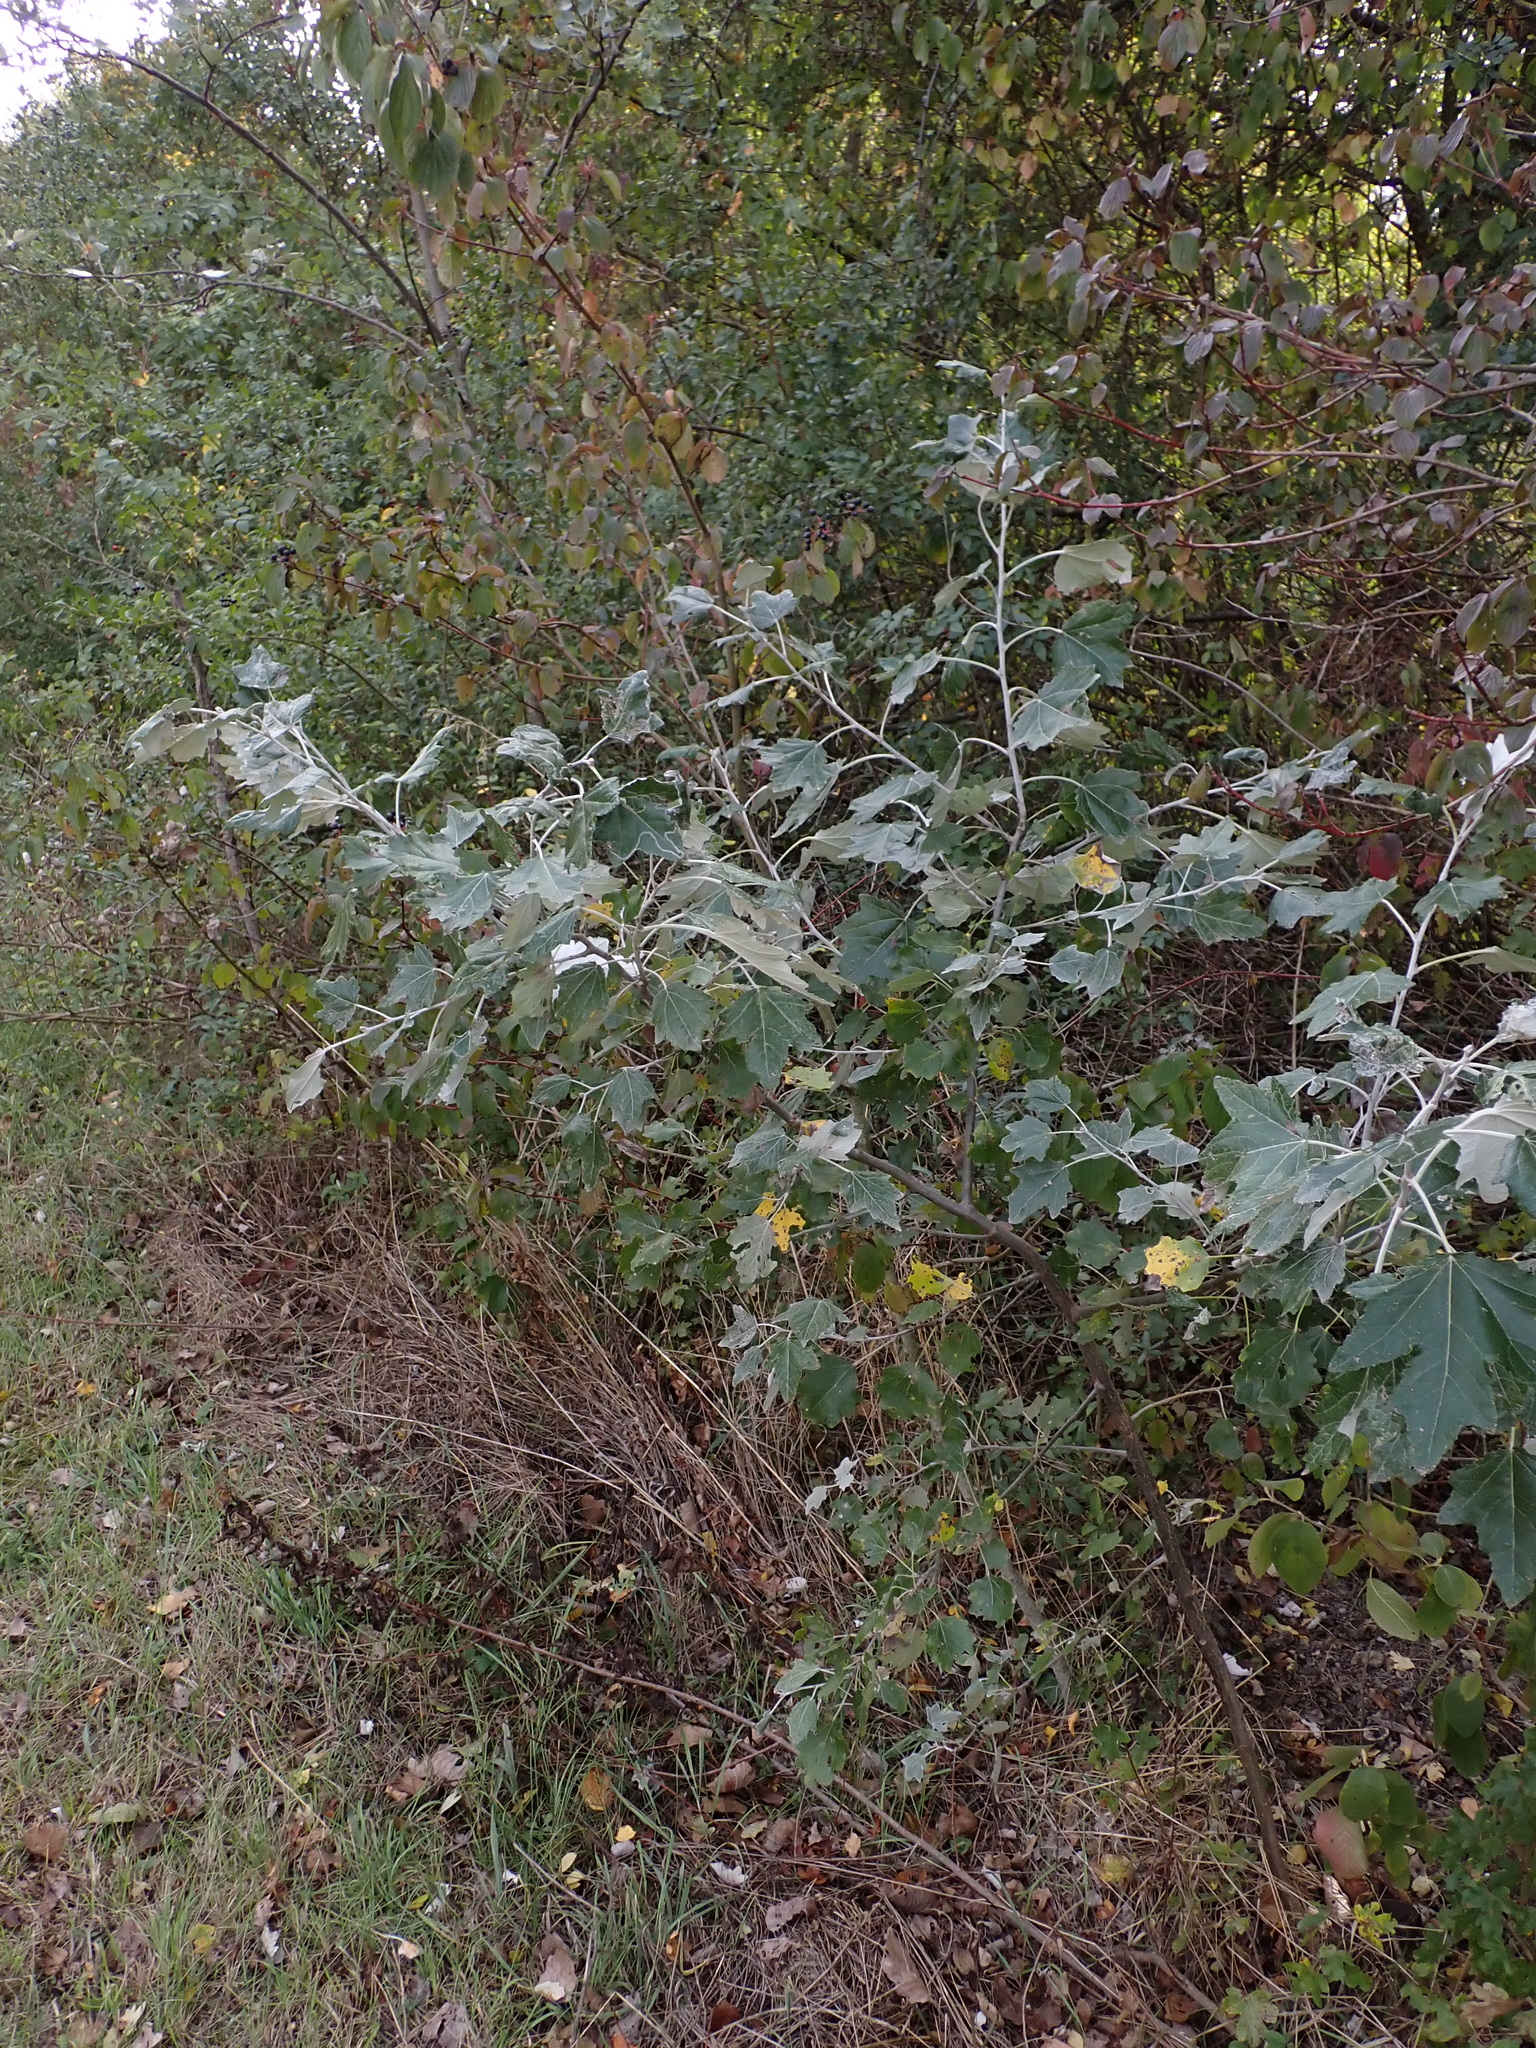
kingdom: Plantae
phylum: Tracheophyta
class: Magnoliopsida
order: Malpighiales
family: Salicaceae
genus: Populus
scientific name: Populus alba
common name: White poplar
